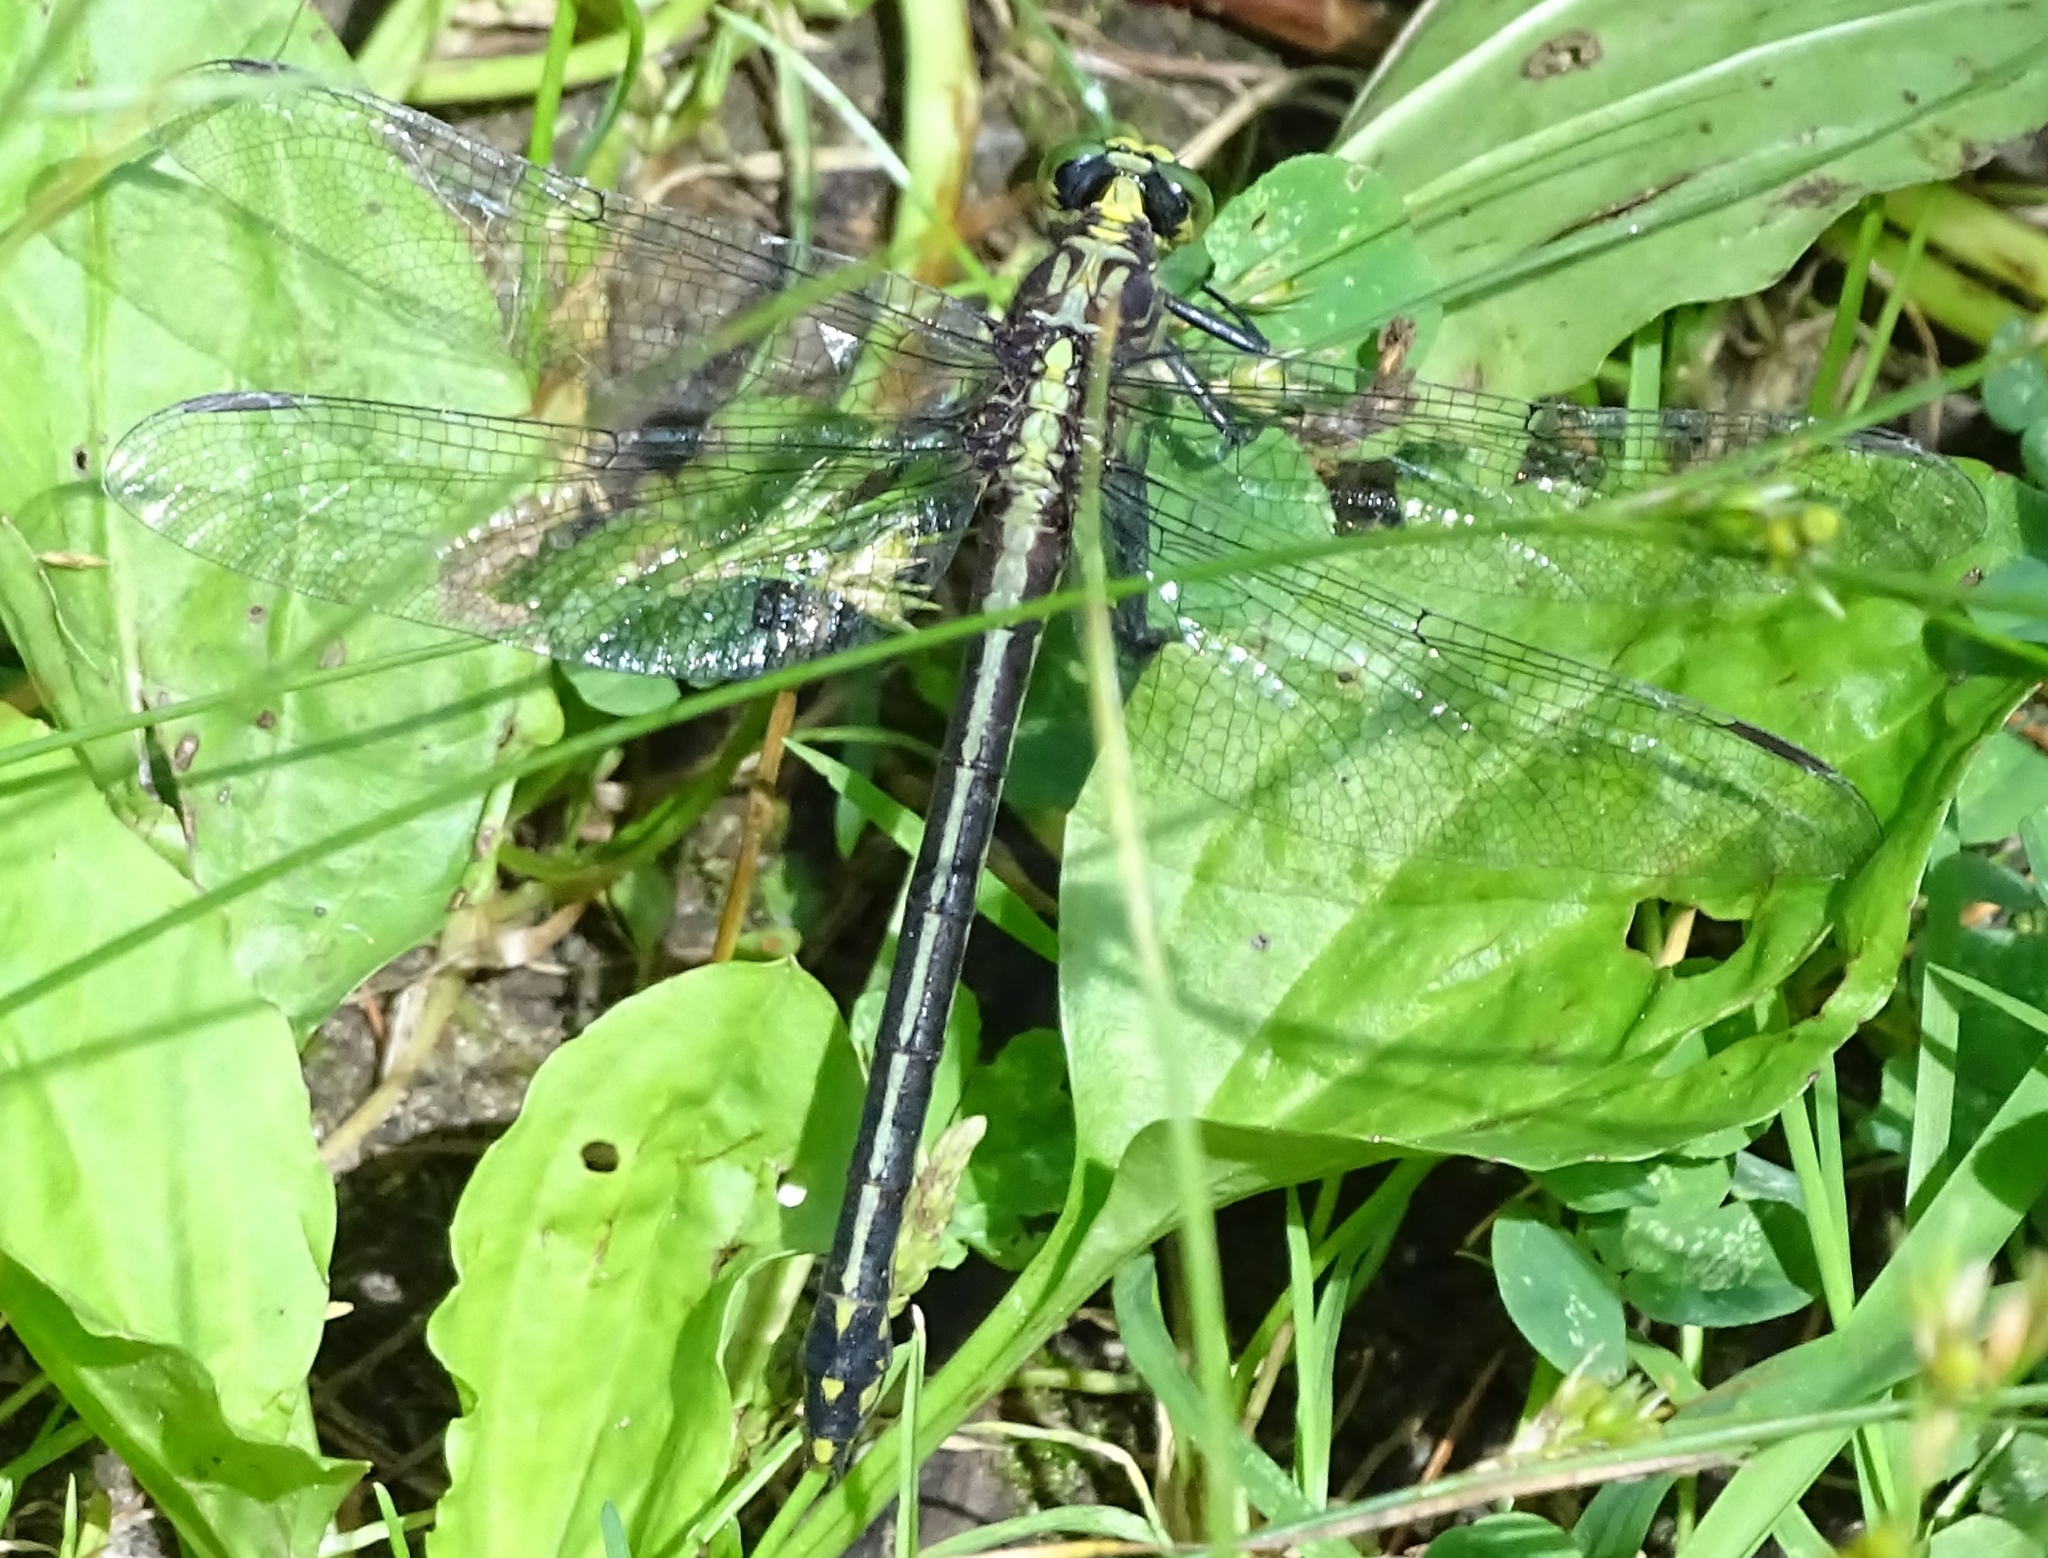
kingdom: Animalia
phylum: Arthropoda
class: Insecta
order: Odonata
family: Gomphidae
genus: Dromogomphus
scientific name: Dromogomphus spinosus
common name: Black-shouldered spinyleg
